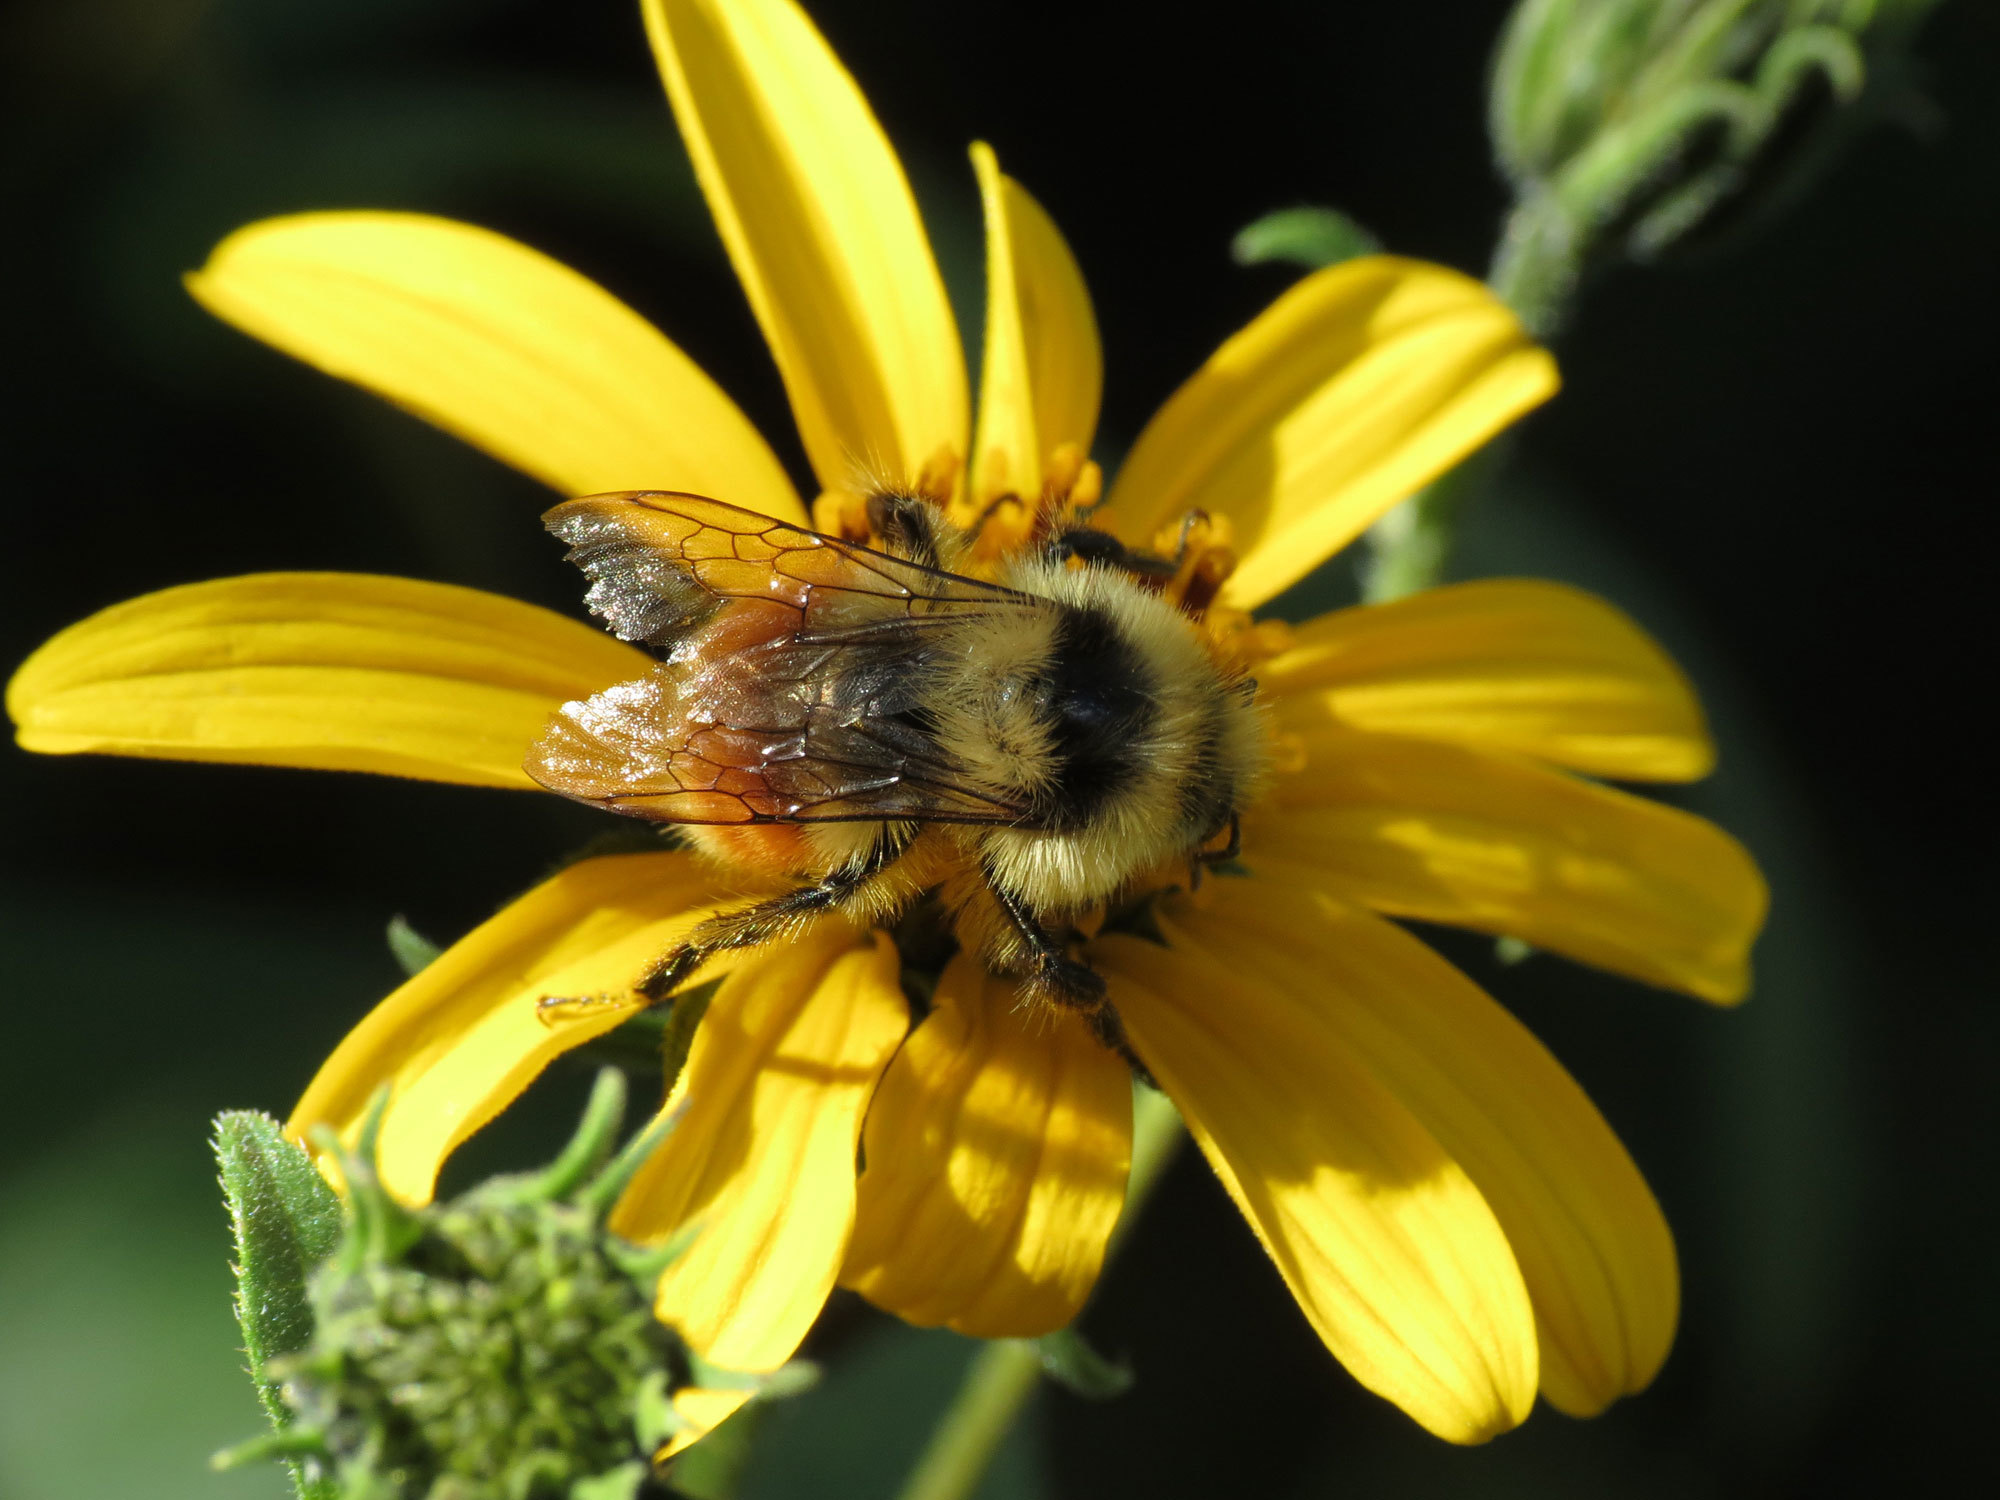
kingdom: Animalia
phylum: Arthropoda
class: Insecta
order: Hymenoptera
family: Apidae
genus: Bombus
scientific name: Bombus huntii
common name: Hunt bumble bee
